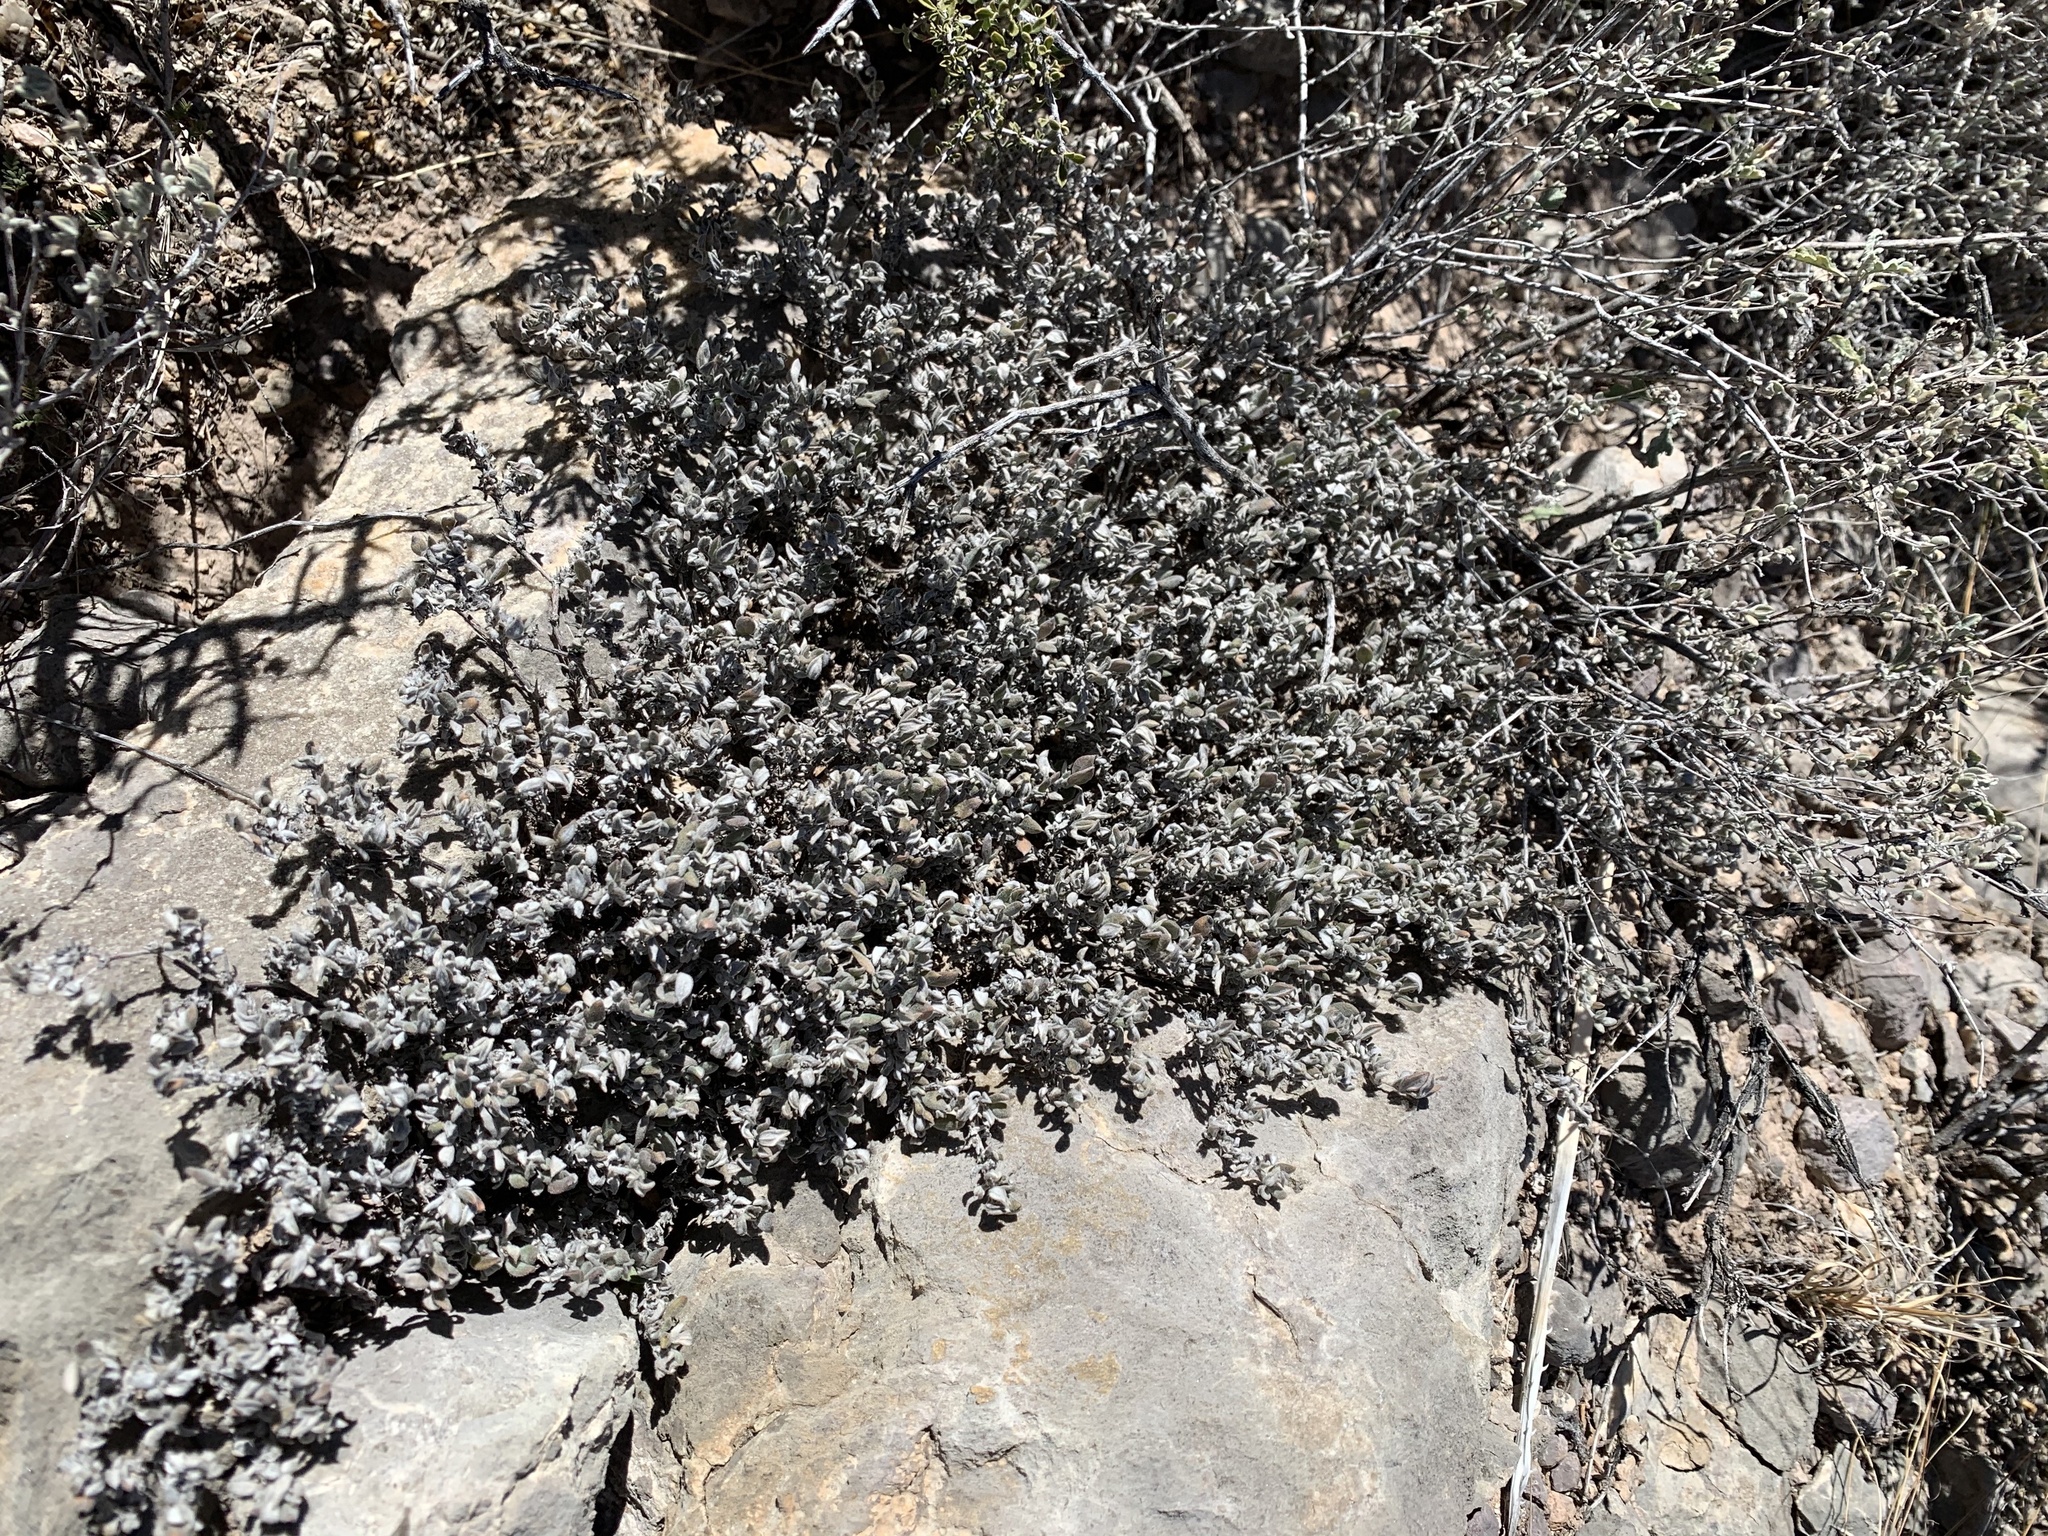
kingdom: Plantae
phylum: Tracheophyta
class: Magnoliopsida
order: Boraginales
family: Ehretiaceae
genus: Tiquilia
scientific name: Tiquilia canescens
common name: Hairy tiquilia
